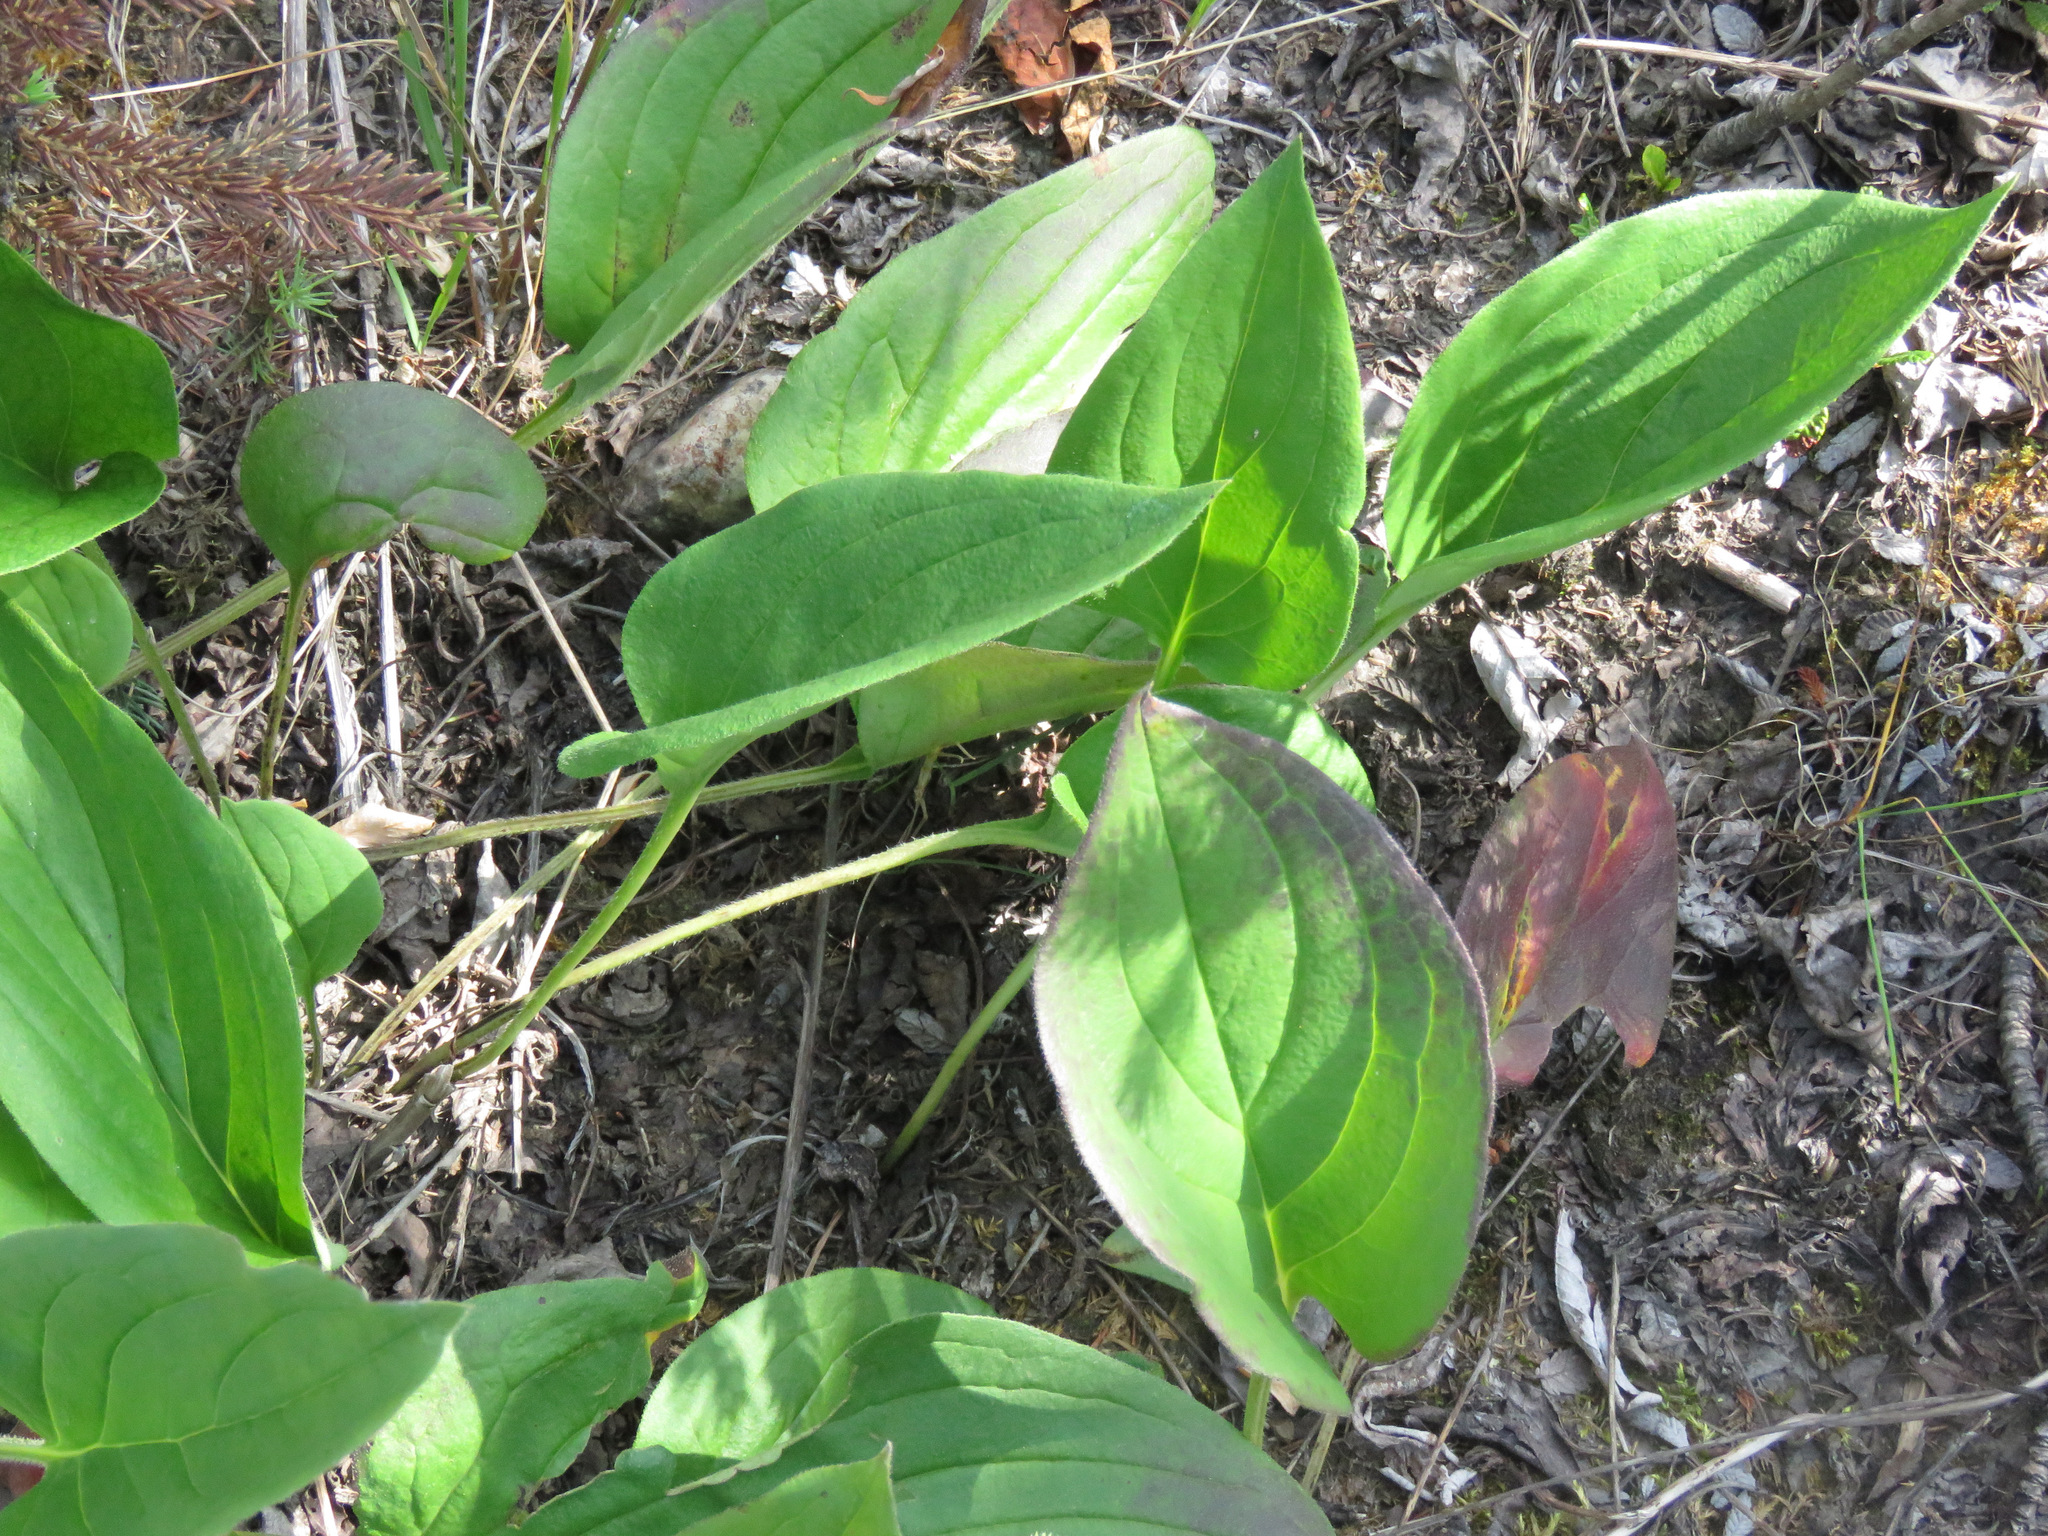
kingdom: Plantae
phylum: Tracheophyta
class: Magnoliopsida
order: Boraginales
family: Boraginaceae
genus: Mertensia
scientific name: Mertensia paniculata
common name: Panicled bluebells
